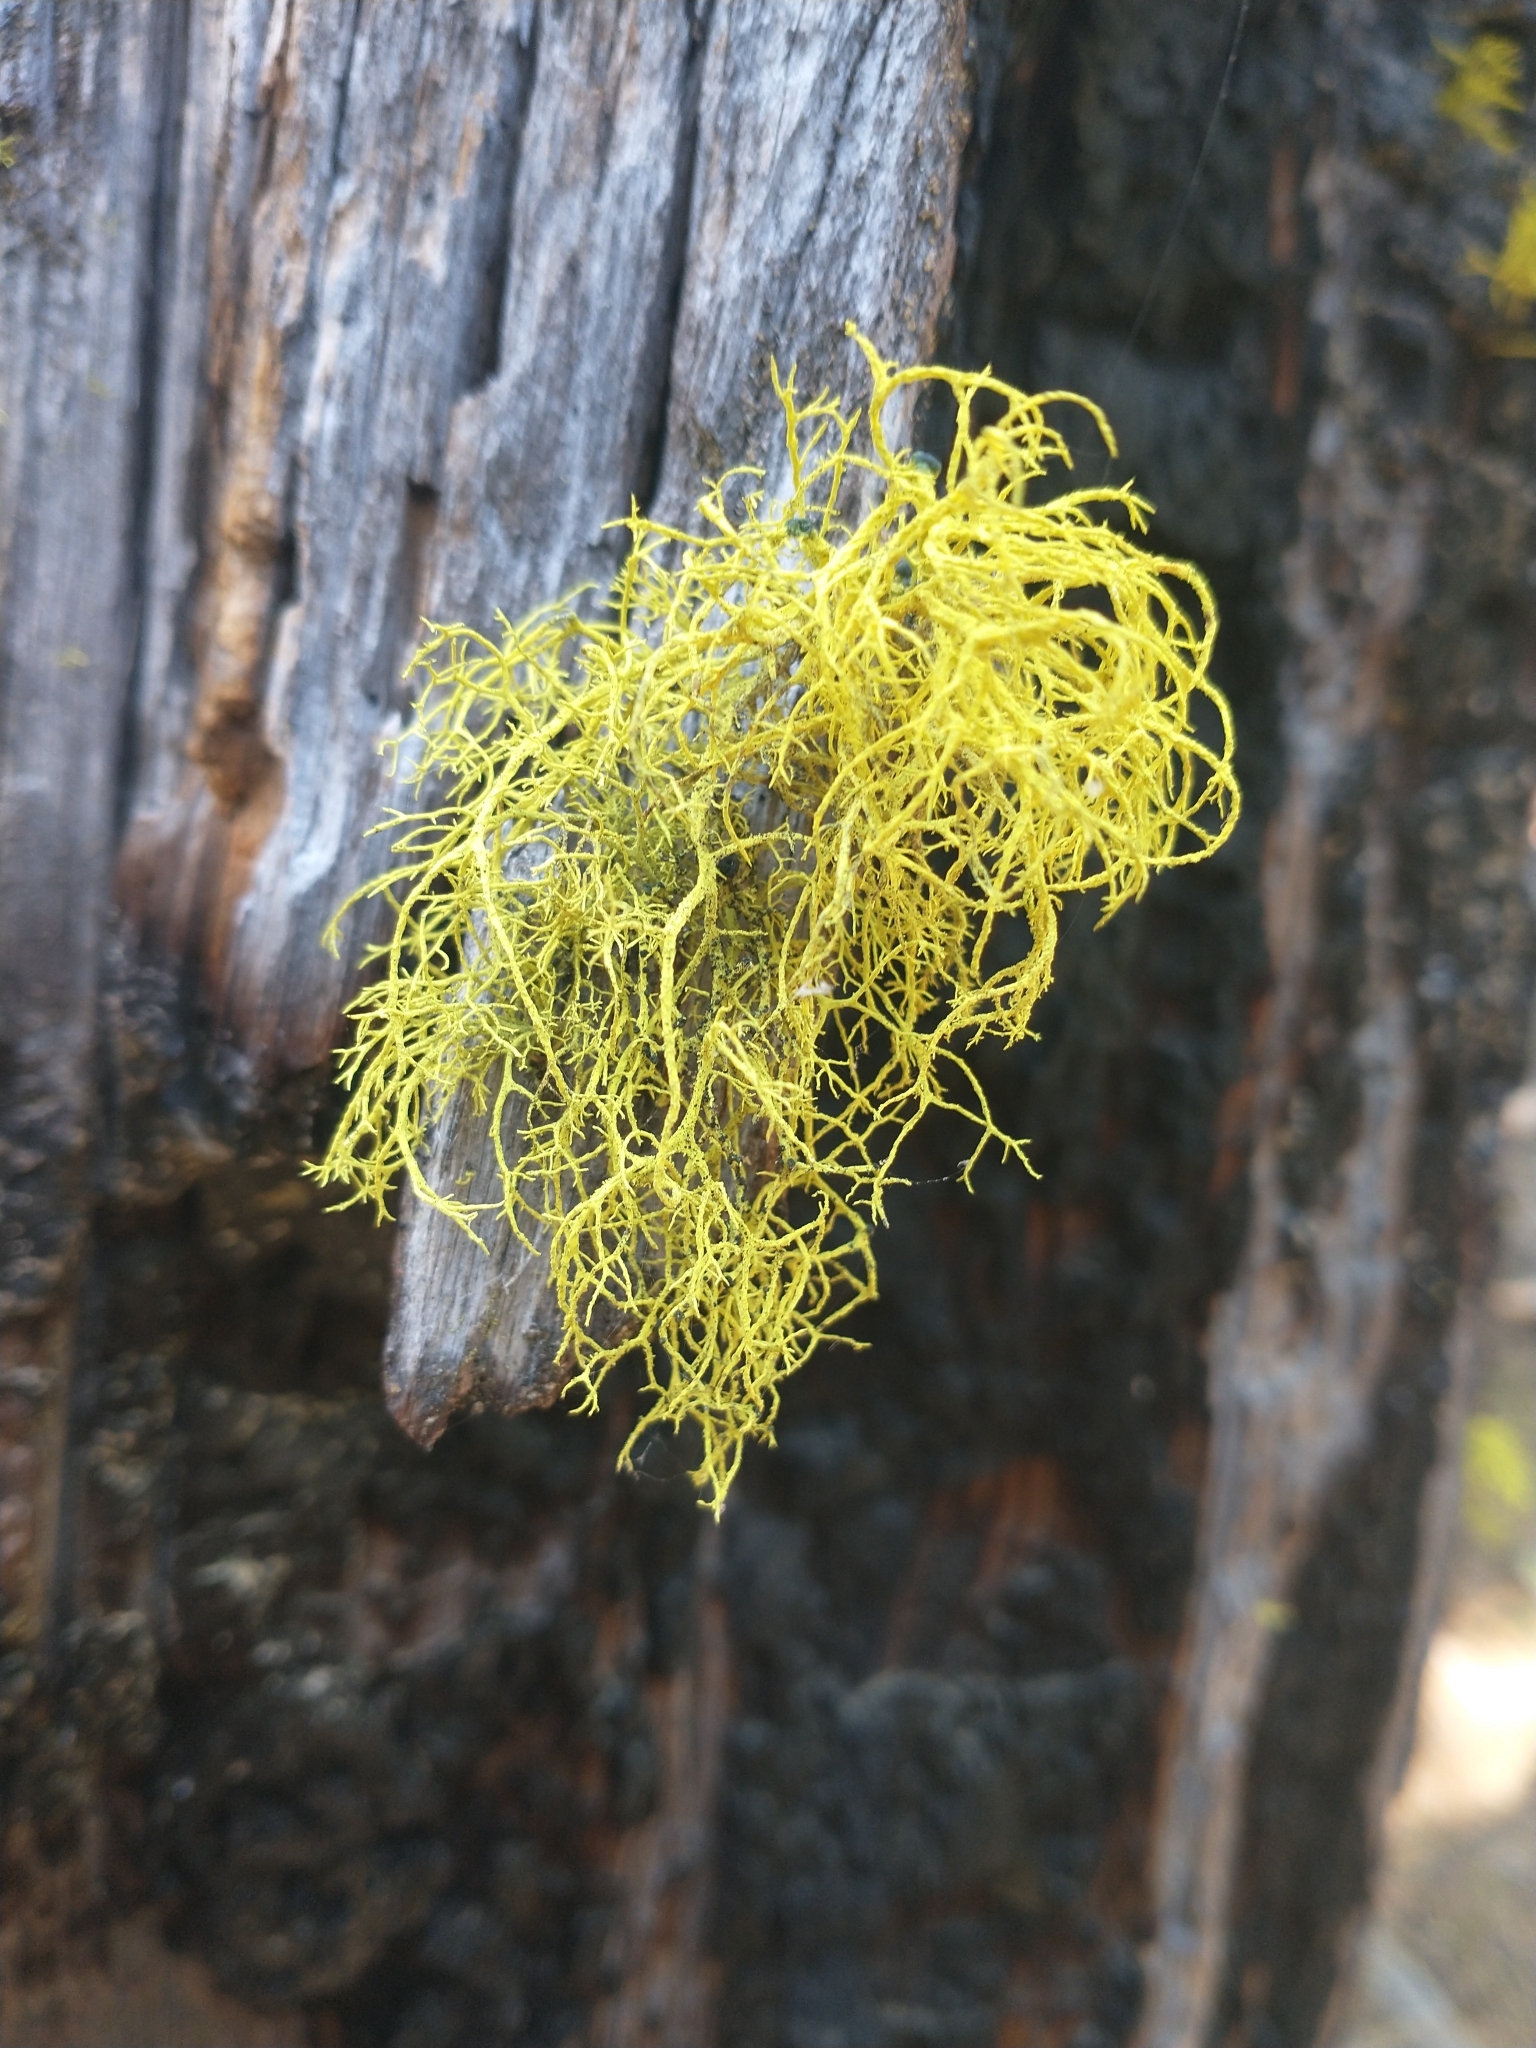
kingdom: Fungi
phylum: Ascomycota
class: Lecanoromycetes
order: Lecanorales
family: Parmeliaceae
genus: Letharia
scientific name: Letharia vulpina
